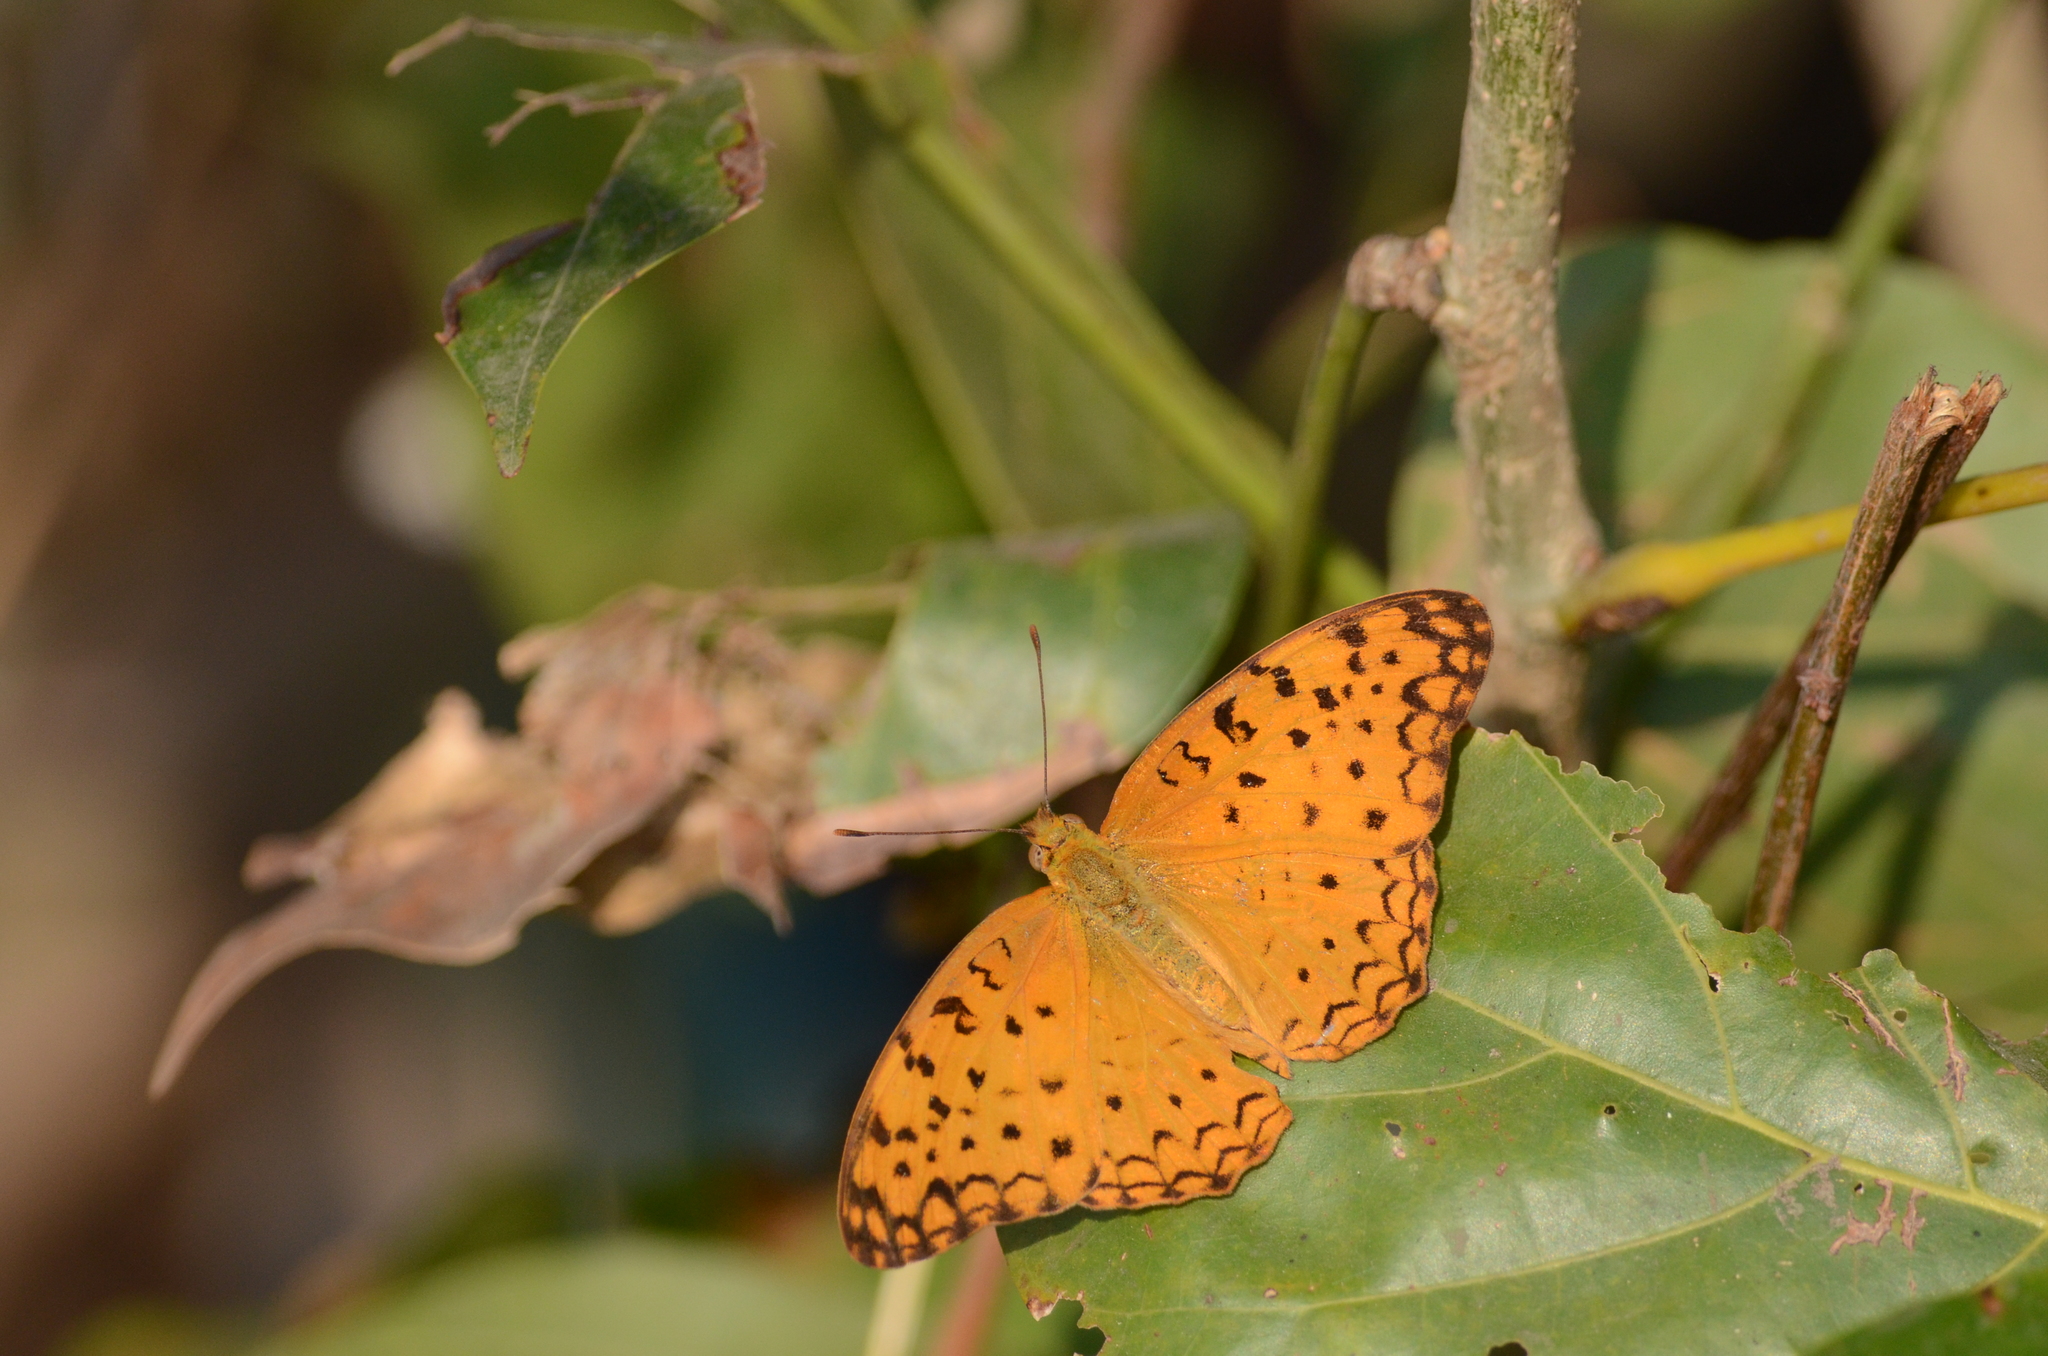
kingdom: Animalia
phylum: Arthropoda
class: Insecta
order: Lepidoptera
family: Nymphalidae
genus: Phalanta
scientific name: Phalanta phalantha
